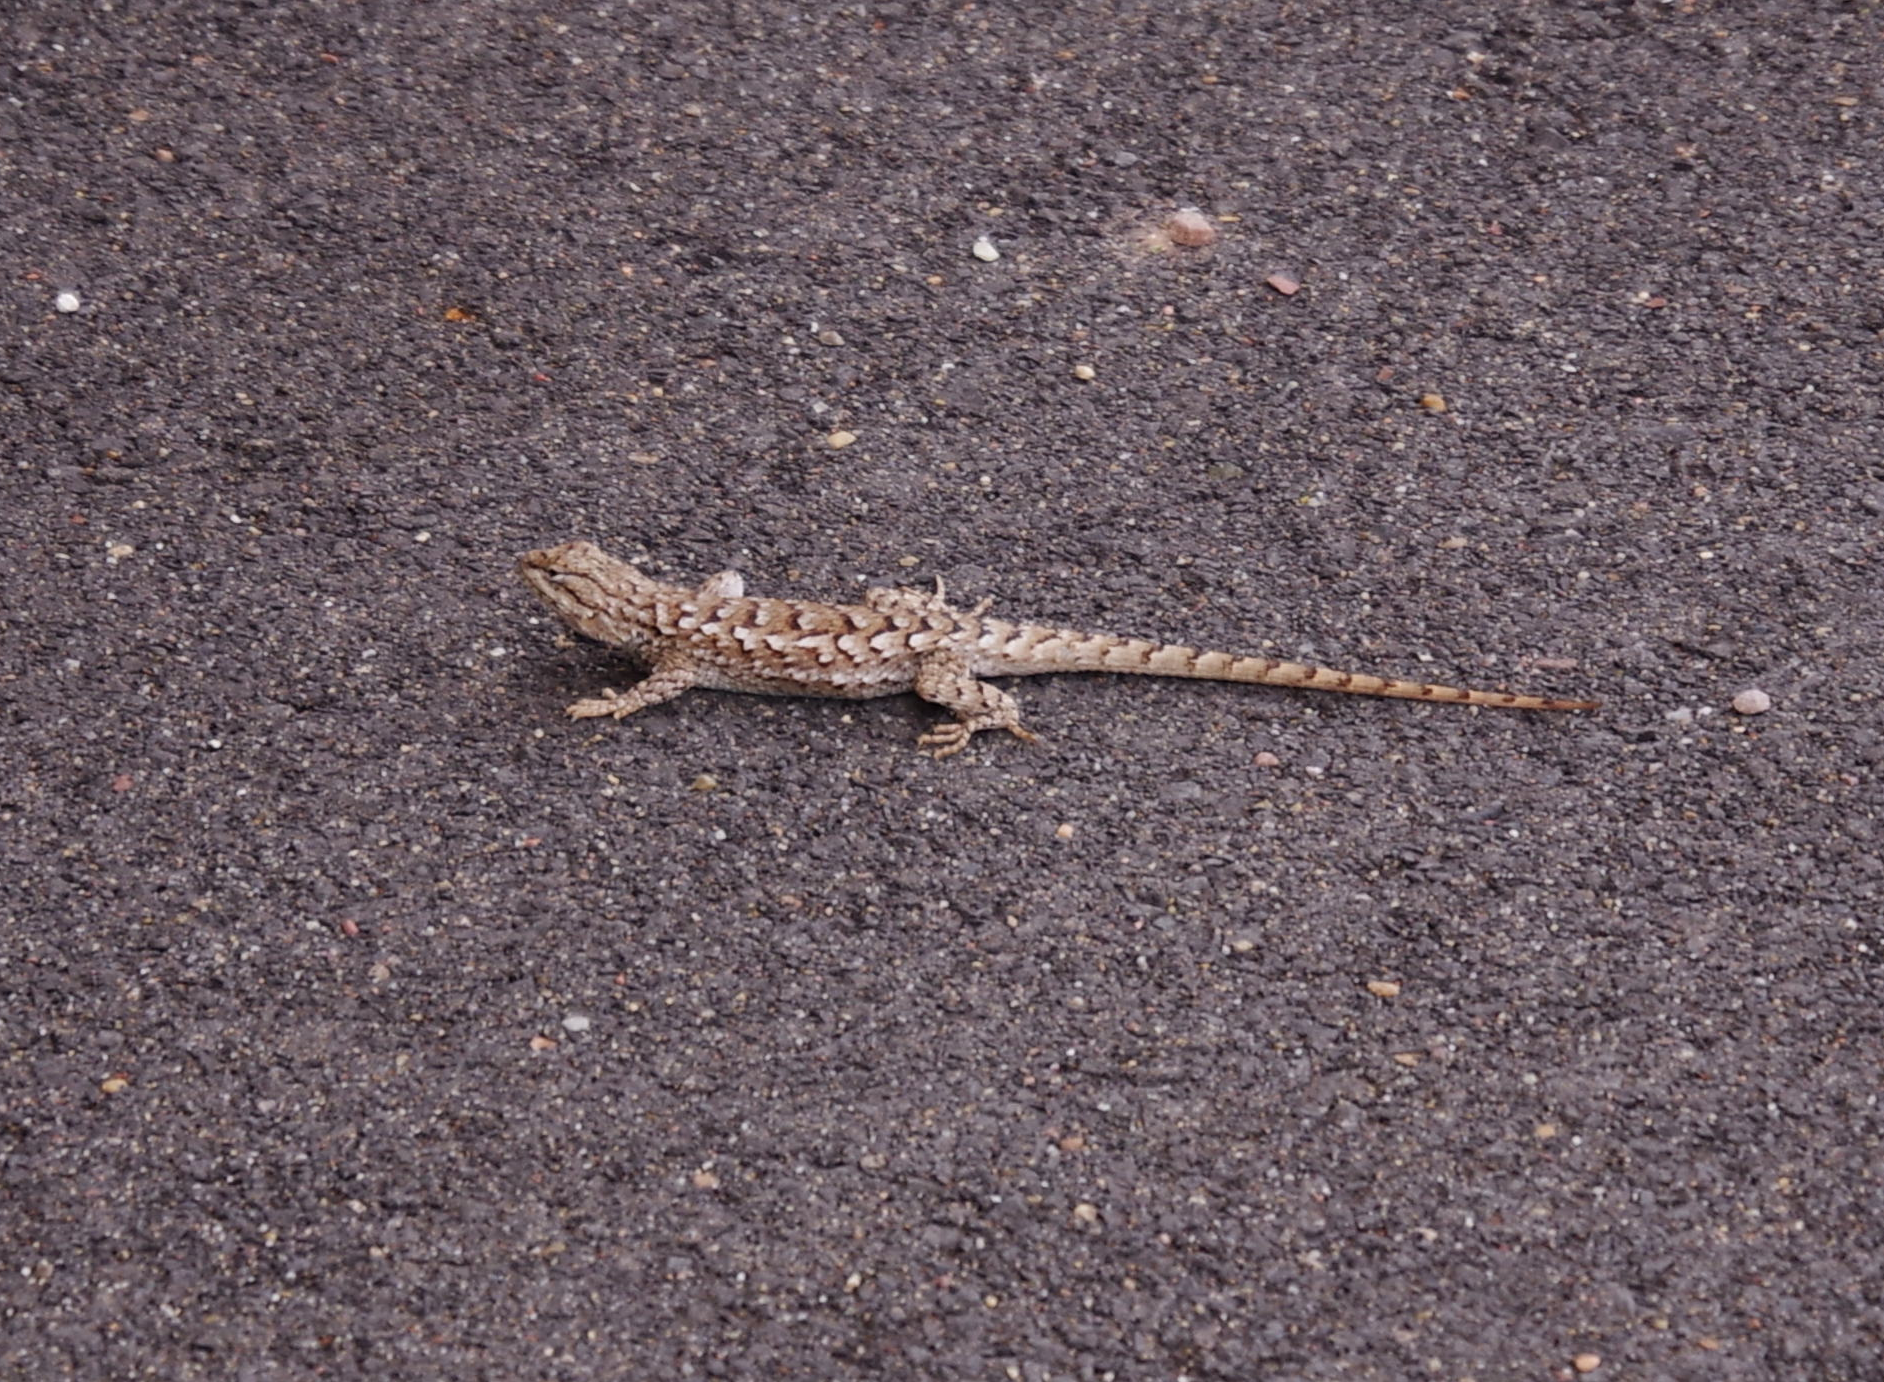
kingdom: Animalia
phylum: Chordata
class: Squamata
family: Phrynosomatidae
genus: Sceloporus
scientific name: Sceloporus tristichus
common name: Plateau fence lizard
